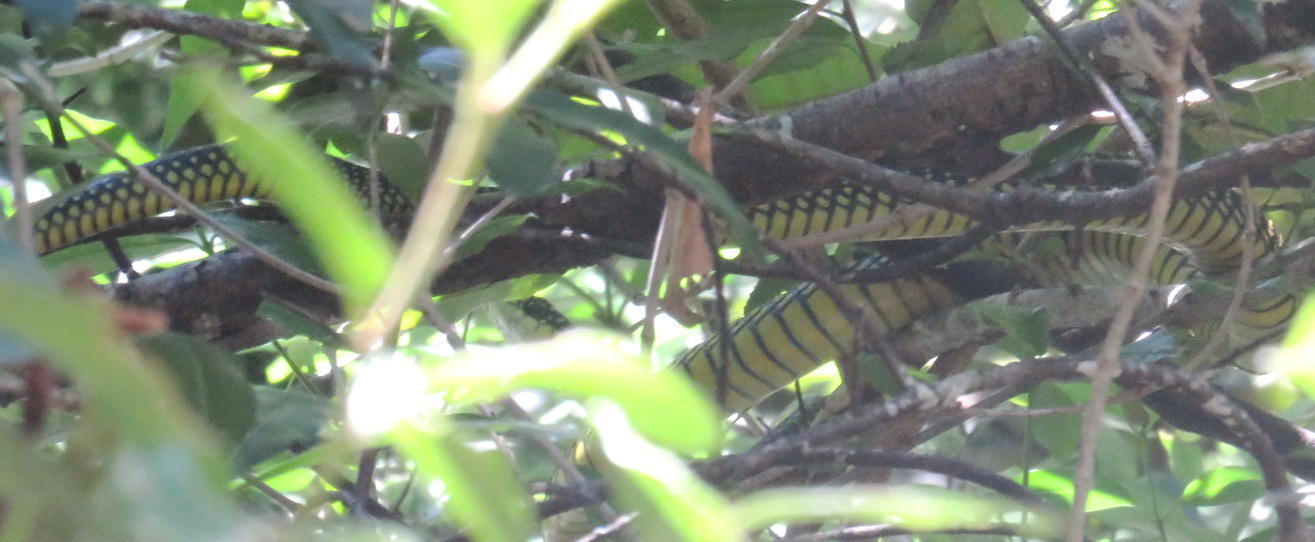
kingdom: Animalia
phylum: Chordata
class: Squamata
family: Colubridae
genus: Dispholidus
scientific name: Dispholidus typus
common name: Boomslang
